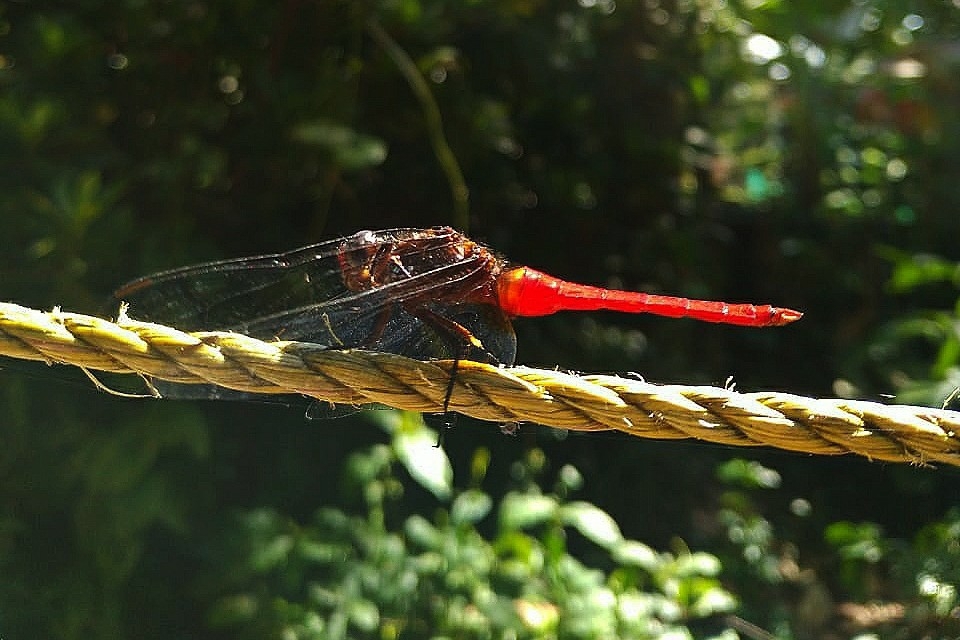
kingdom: Animalia
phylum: Arthropoda
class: Insecta
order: Odonata
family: Libellulidae
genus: Orthetrum
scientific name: Orthetrum chrysis
